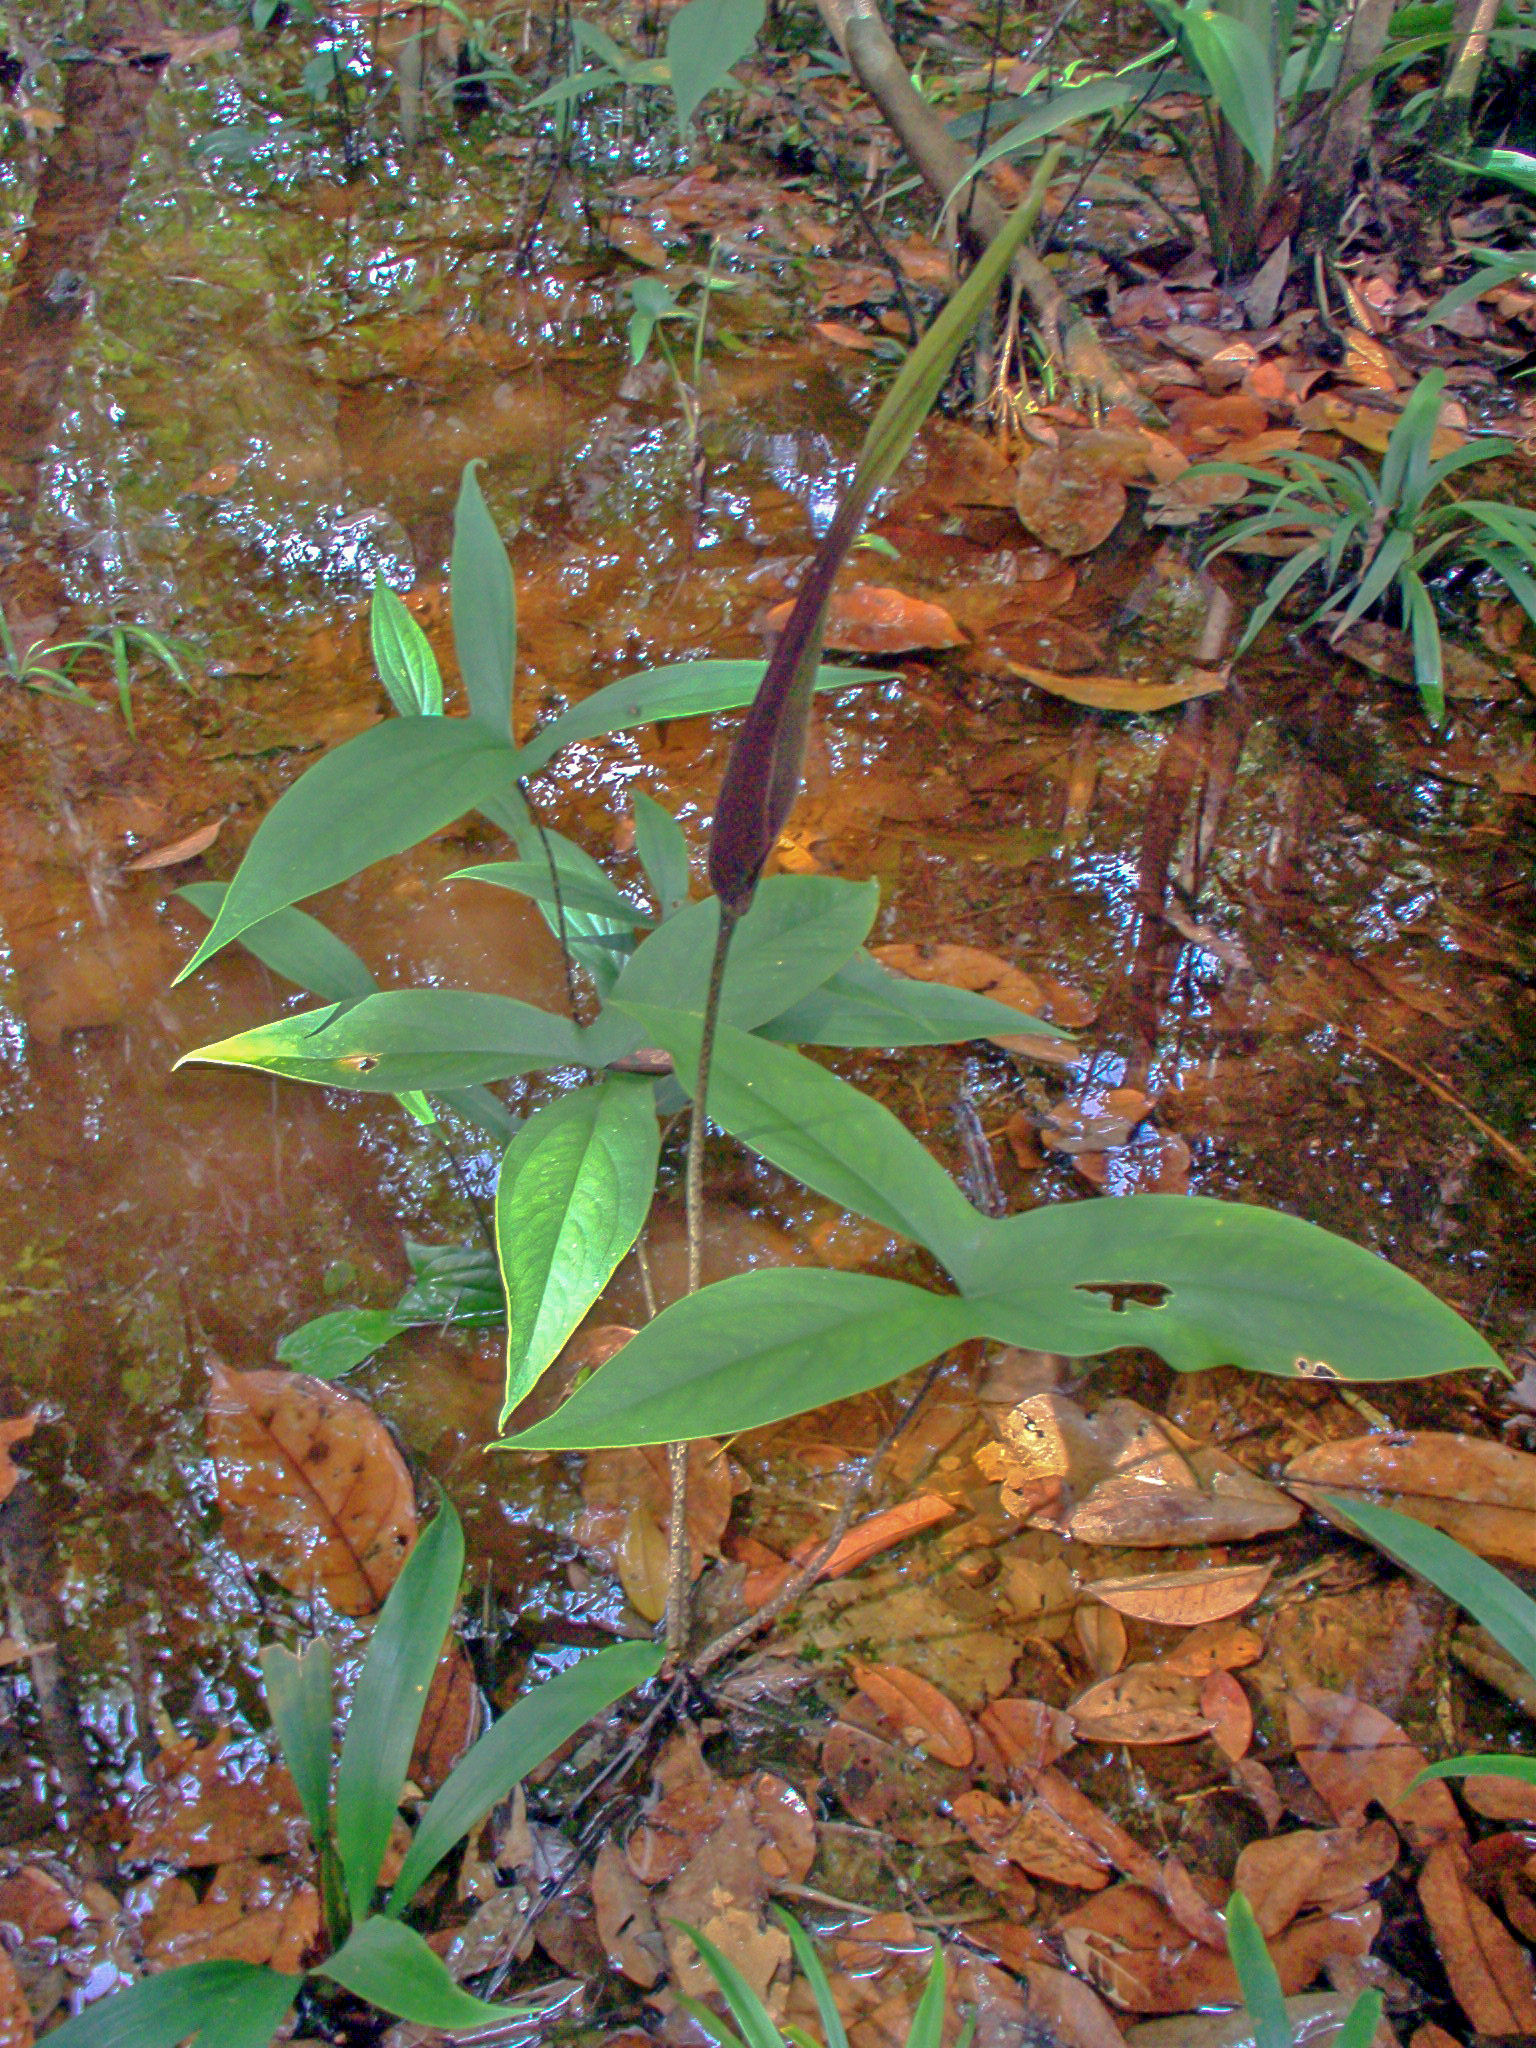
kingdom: Plantae
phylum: Tracheophyta
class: Liliopsida
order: Alismatales
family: Araceae
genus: Urospatha
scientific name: Urospatha sagittifolia
